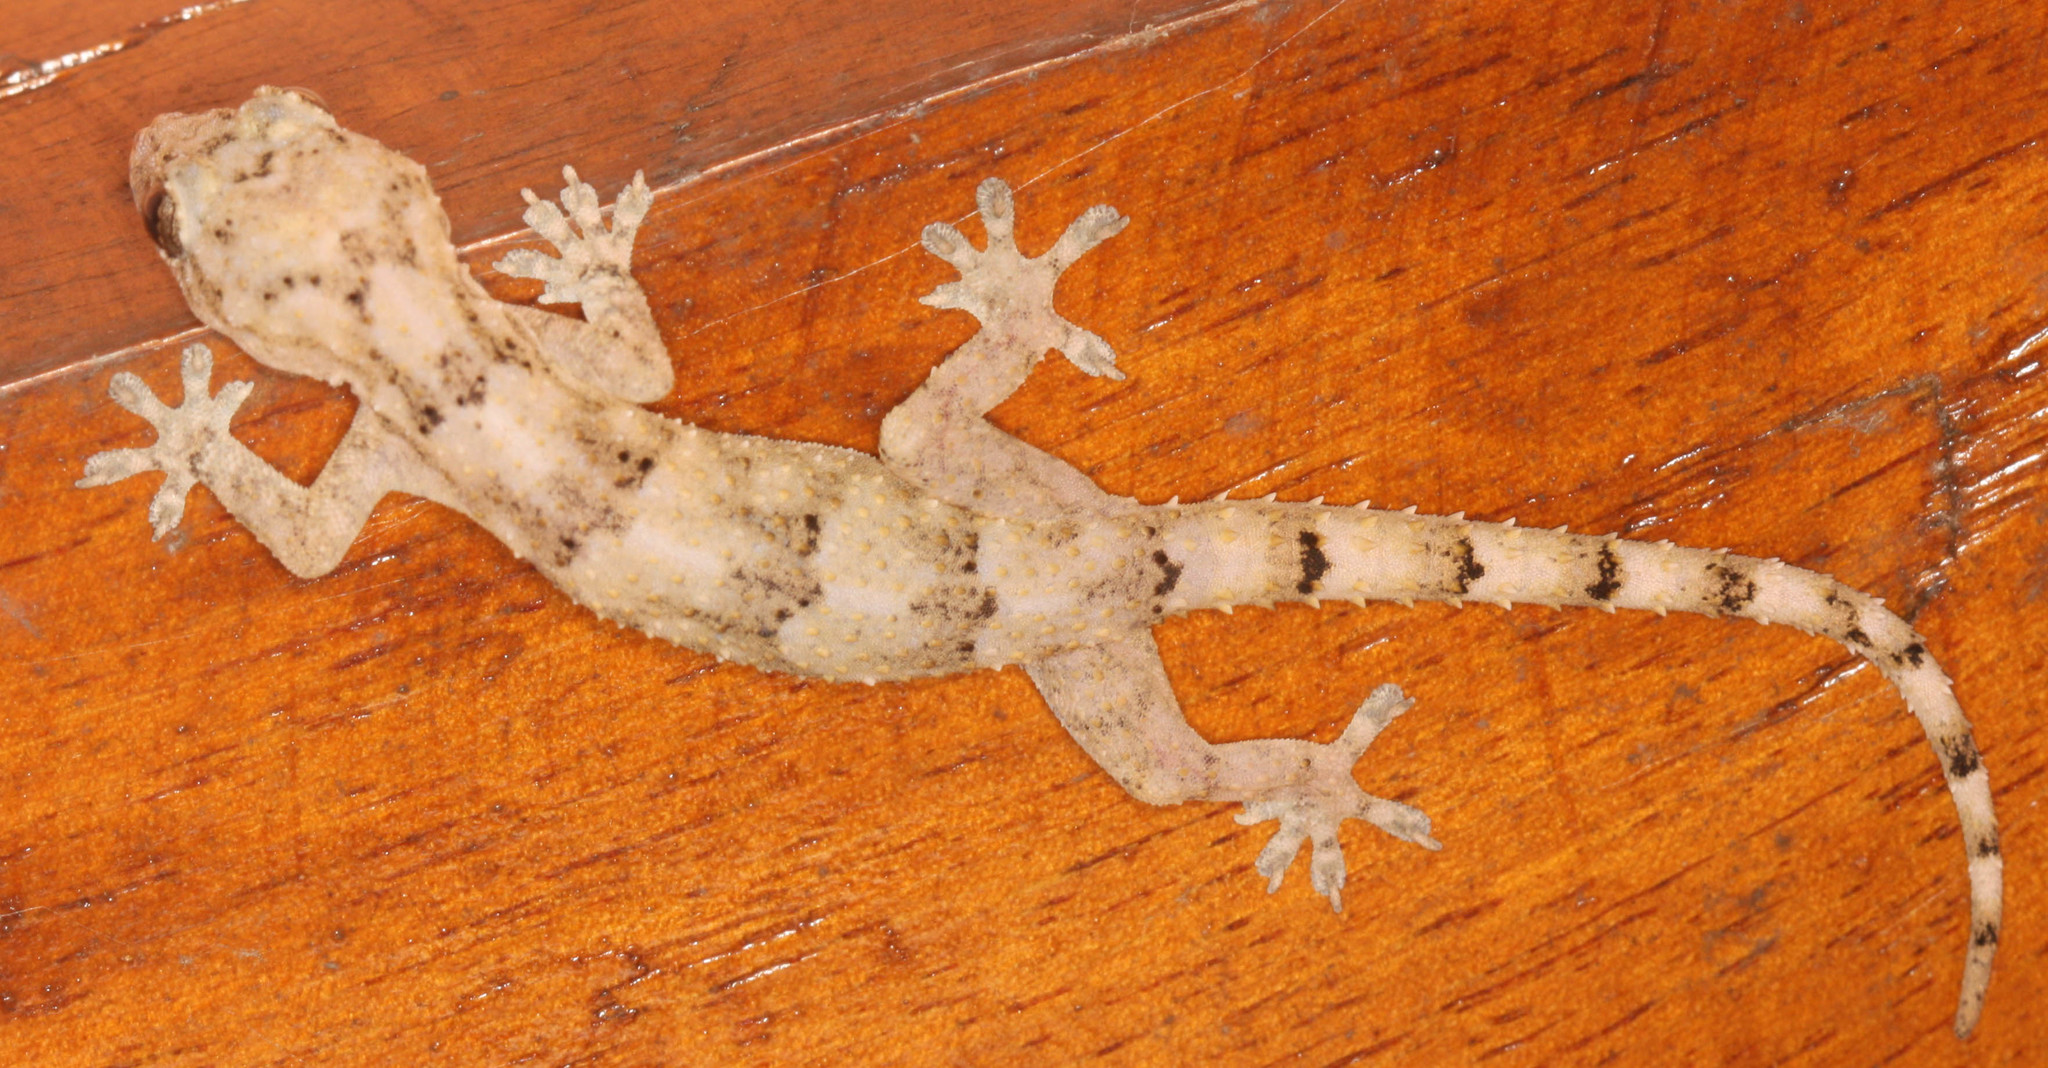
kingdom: Animalia
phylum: Chordata
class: Squamata
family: Gekkonidae
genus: Hemidactylus
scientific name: Hemidactylus mercatorius
